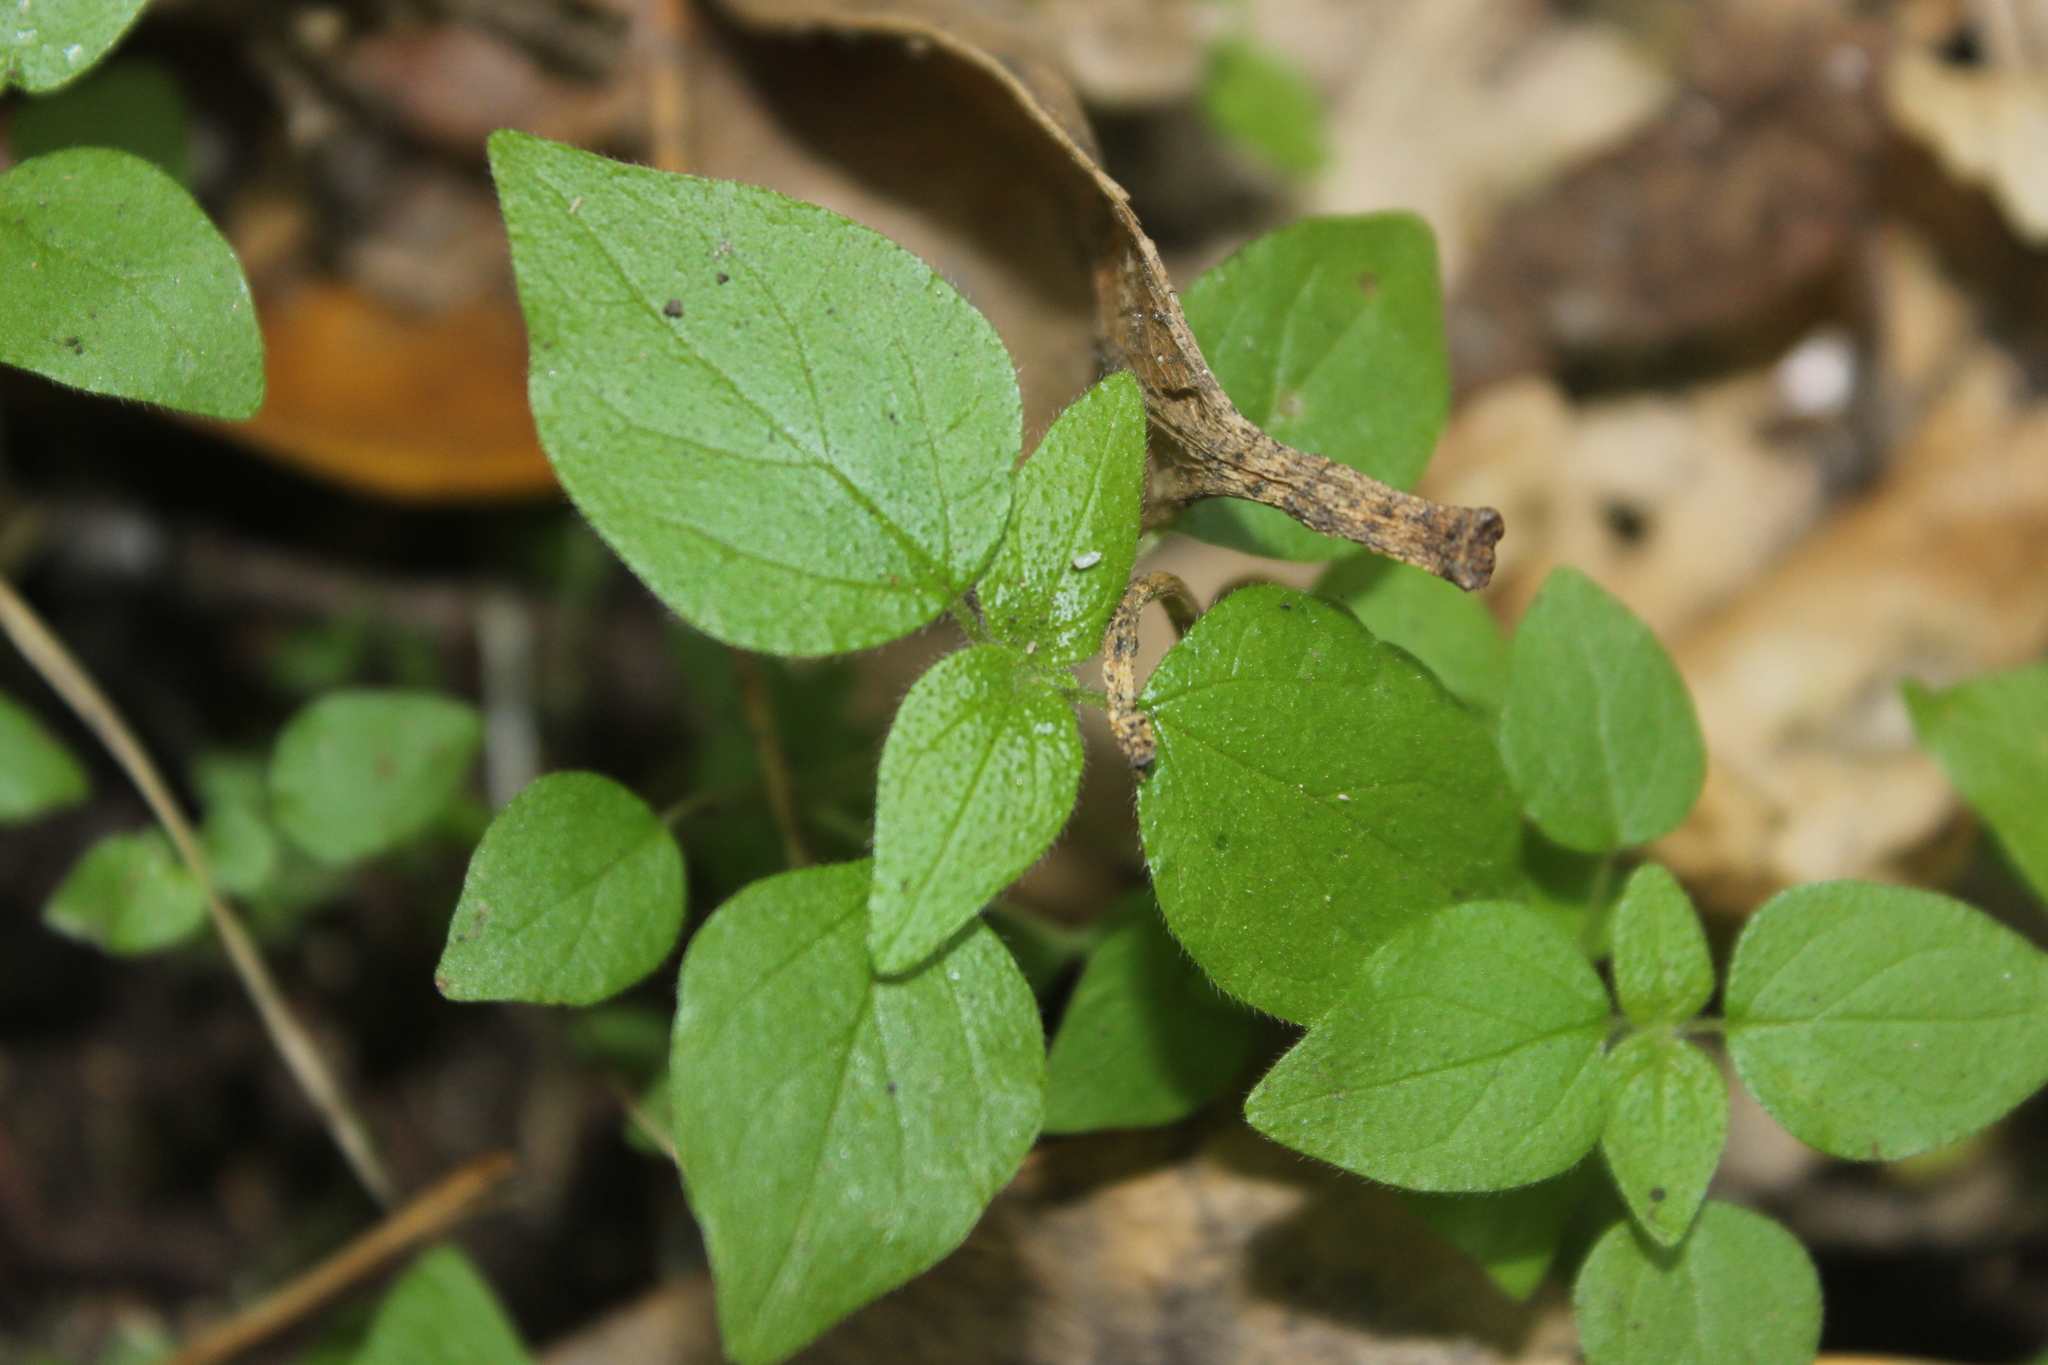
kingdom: Plantae
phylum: Tracheophyta
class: Magnoliopsida
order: Rosales
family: Urticaceae
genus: Parietaria
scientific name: Parietaria debilis
